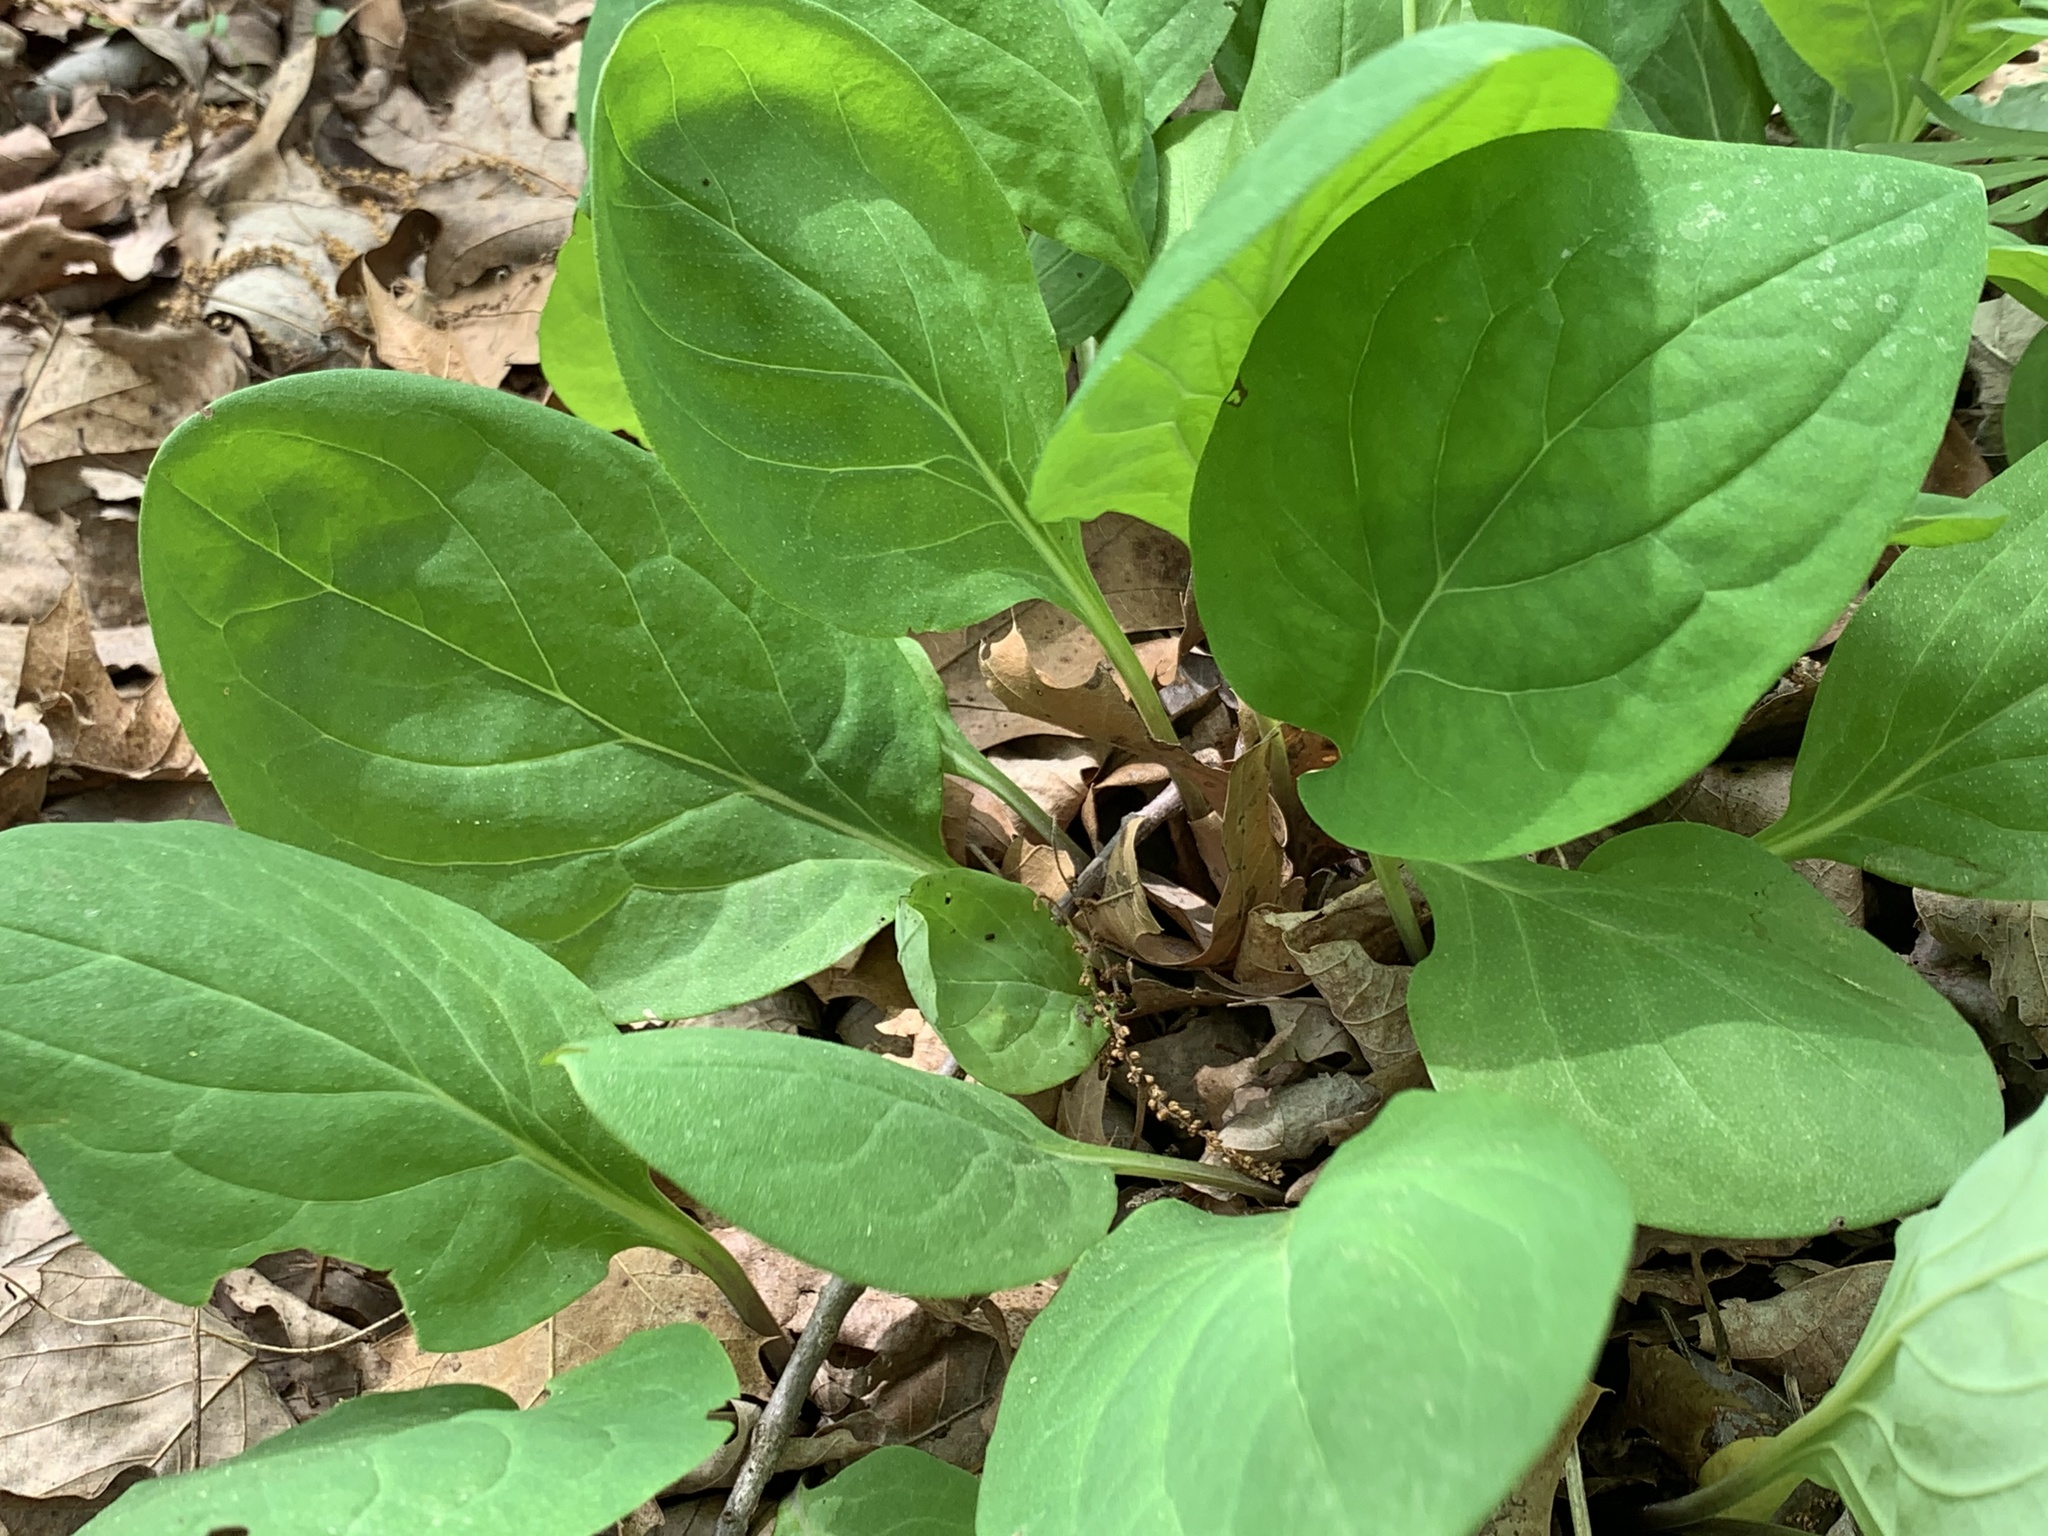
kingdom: Plantae
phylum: Tracheophyta
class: Magnoliopsida
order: Boraginales
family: Boraginaceae
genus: Mertensia
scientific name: Mertensia virginica
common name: Virginia bluebells
